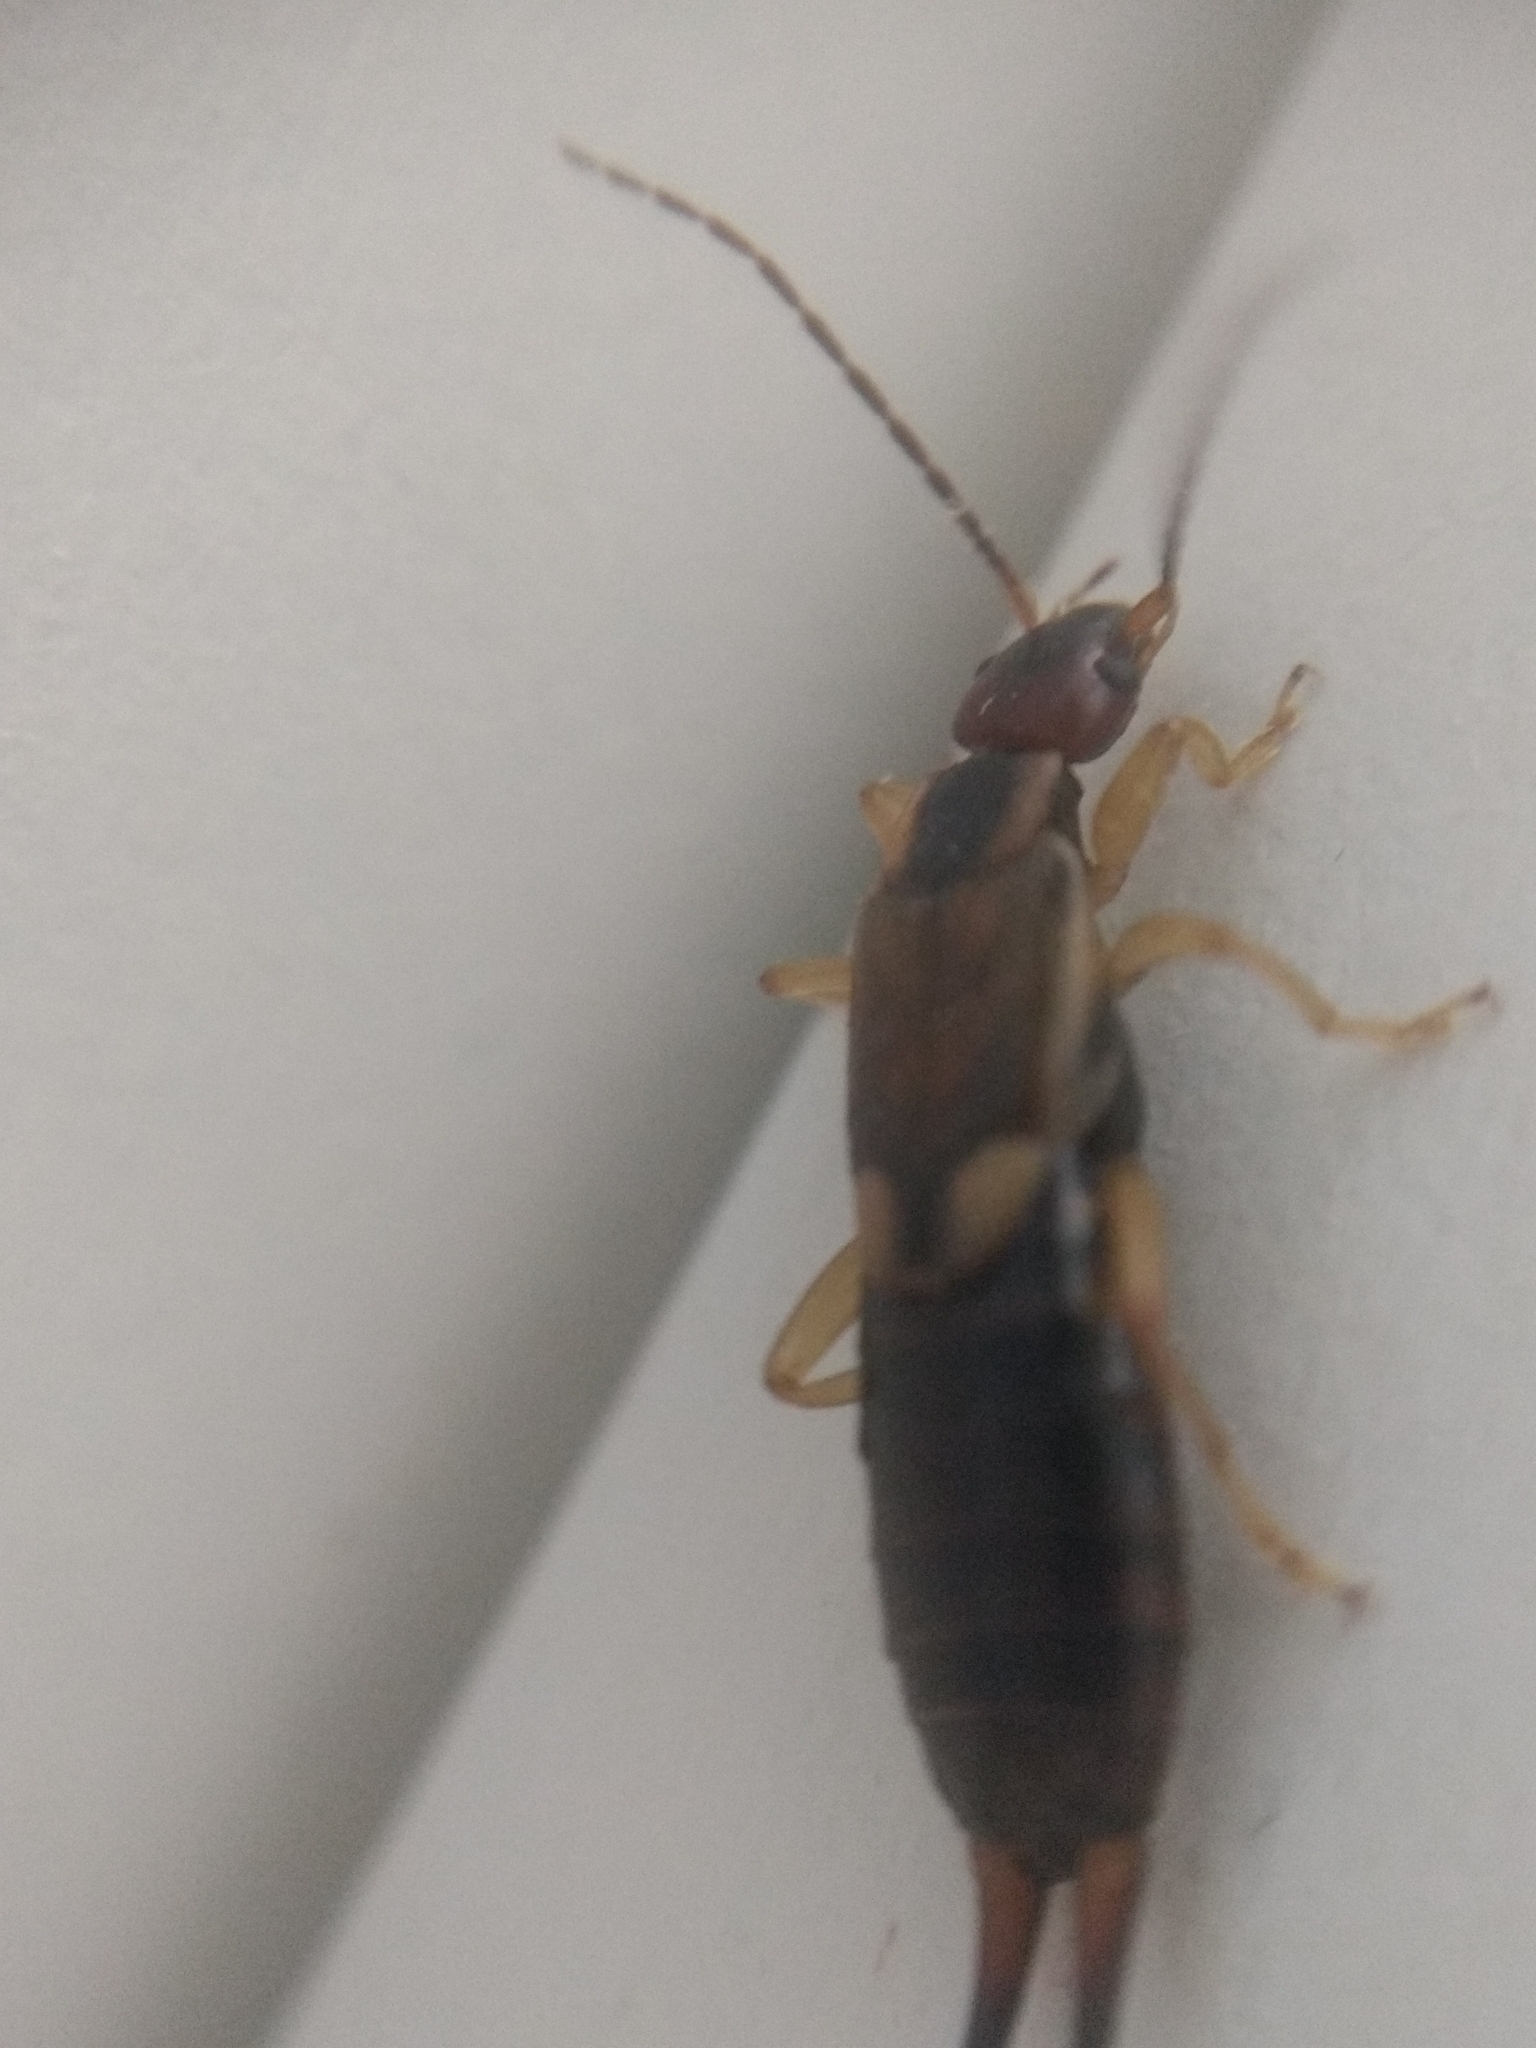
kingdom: Animalia
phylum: Arthropoda
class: Insecta
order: Dermaptera
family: Forficulidae
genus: Forficula
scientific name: Forficula
